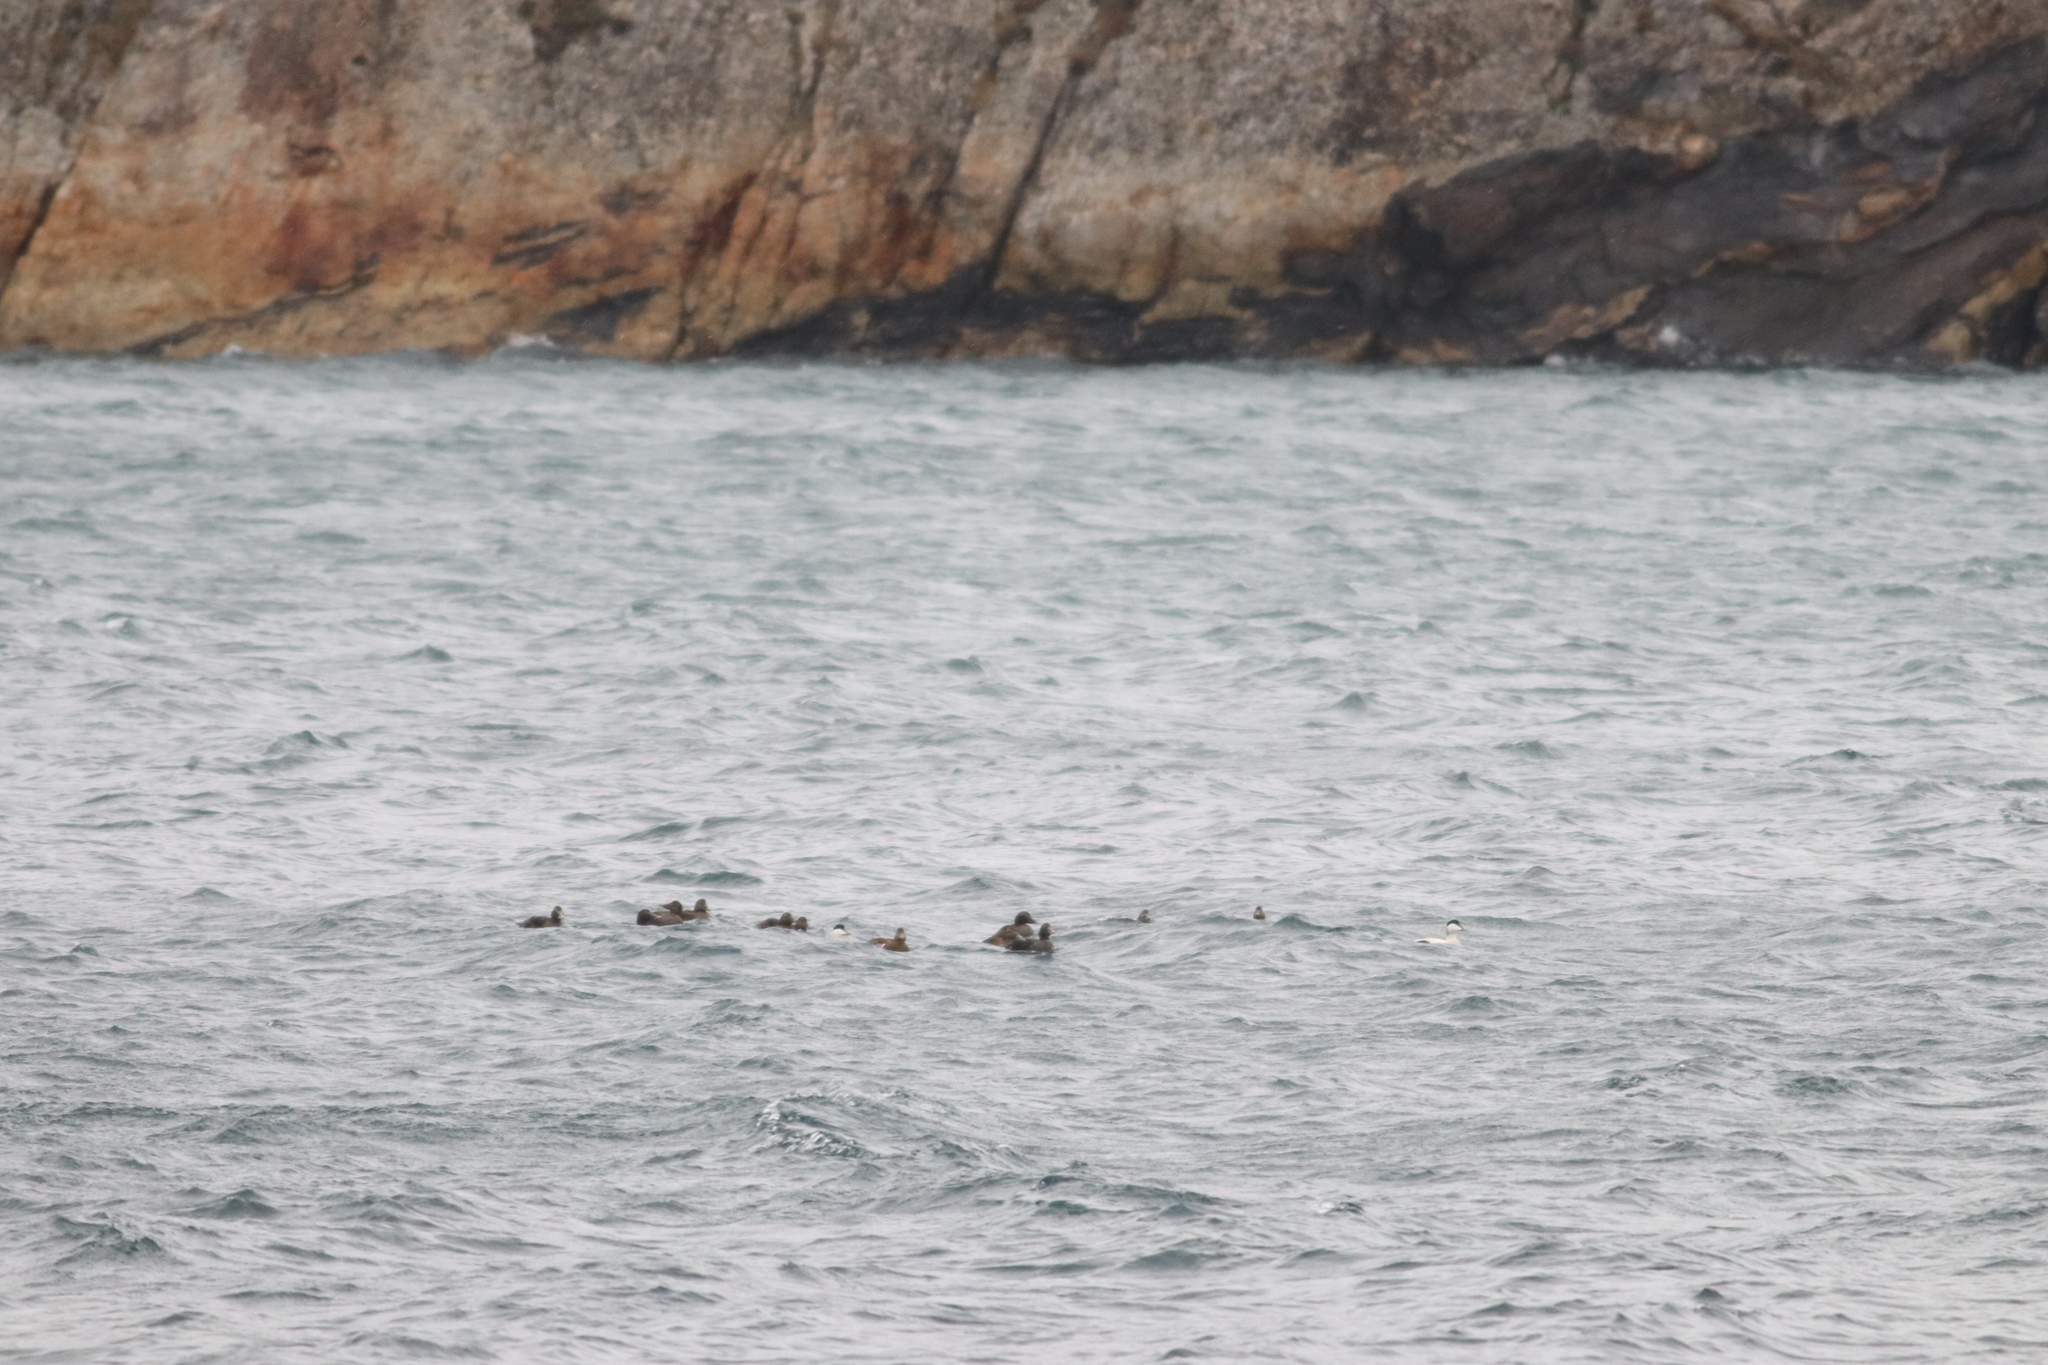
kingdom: Animalia
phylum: Chordata
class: Aves
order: Anseriformes
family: Anatidae
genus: Somateria
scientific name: Somateria mollissima
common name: Common eider
